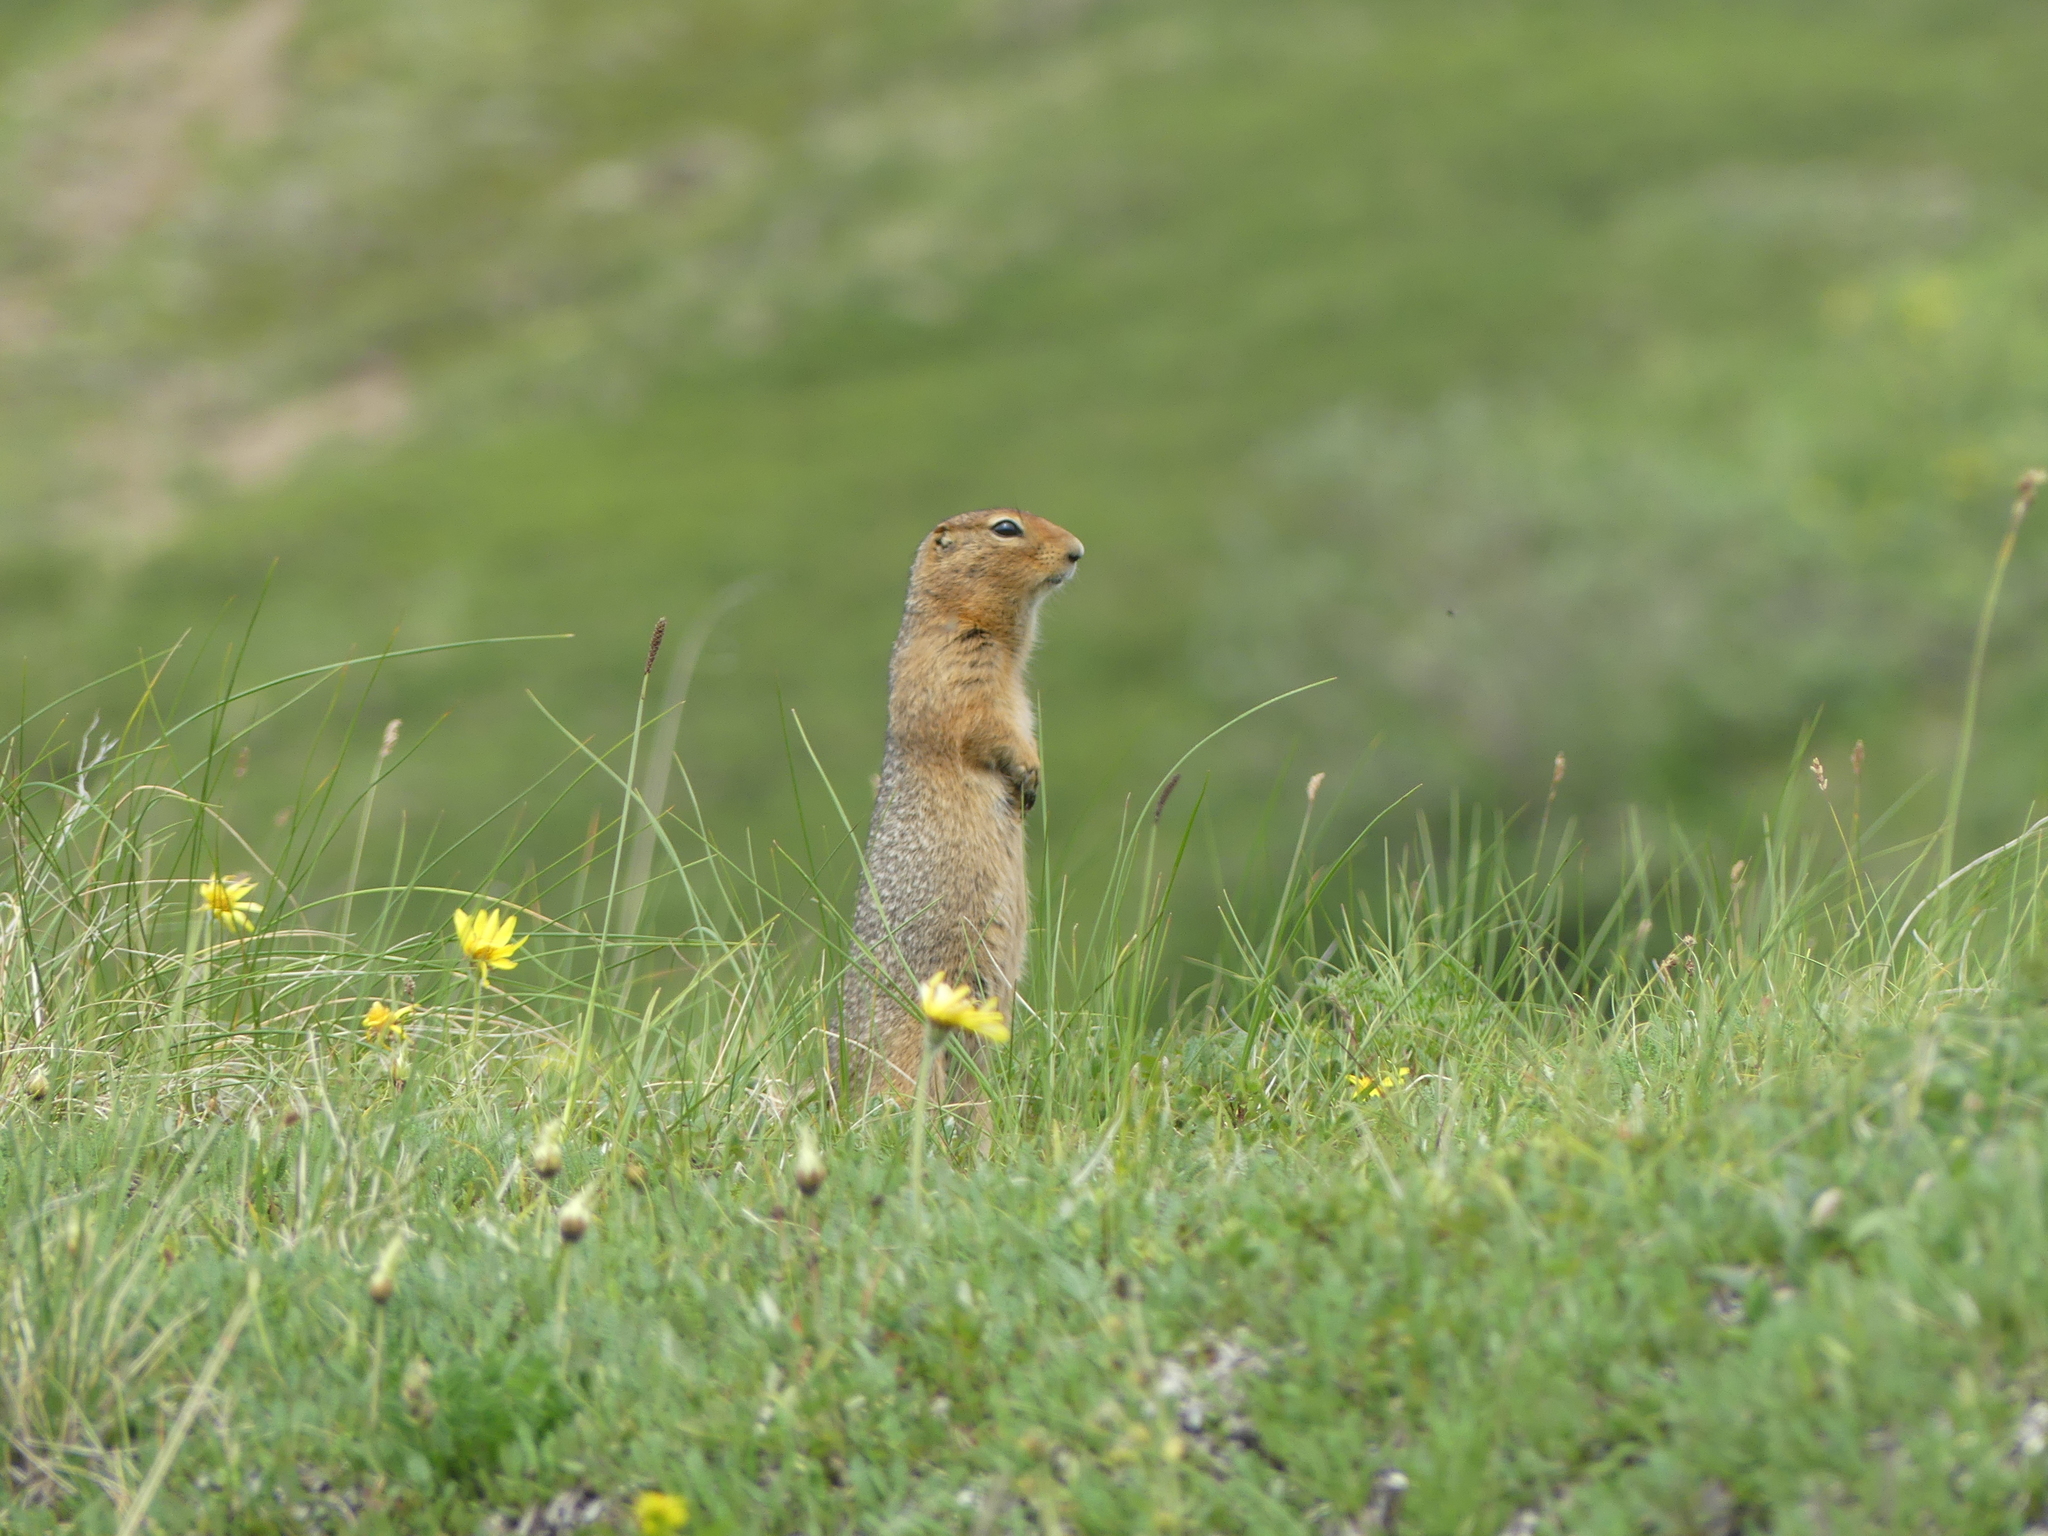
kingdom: Animalia
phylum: Chordata
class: Mammalia
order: Rodentia
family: Sciuridae
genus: Urocitellus
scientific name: Urocitellus parryii
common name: Arctic ground squirrel
